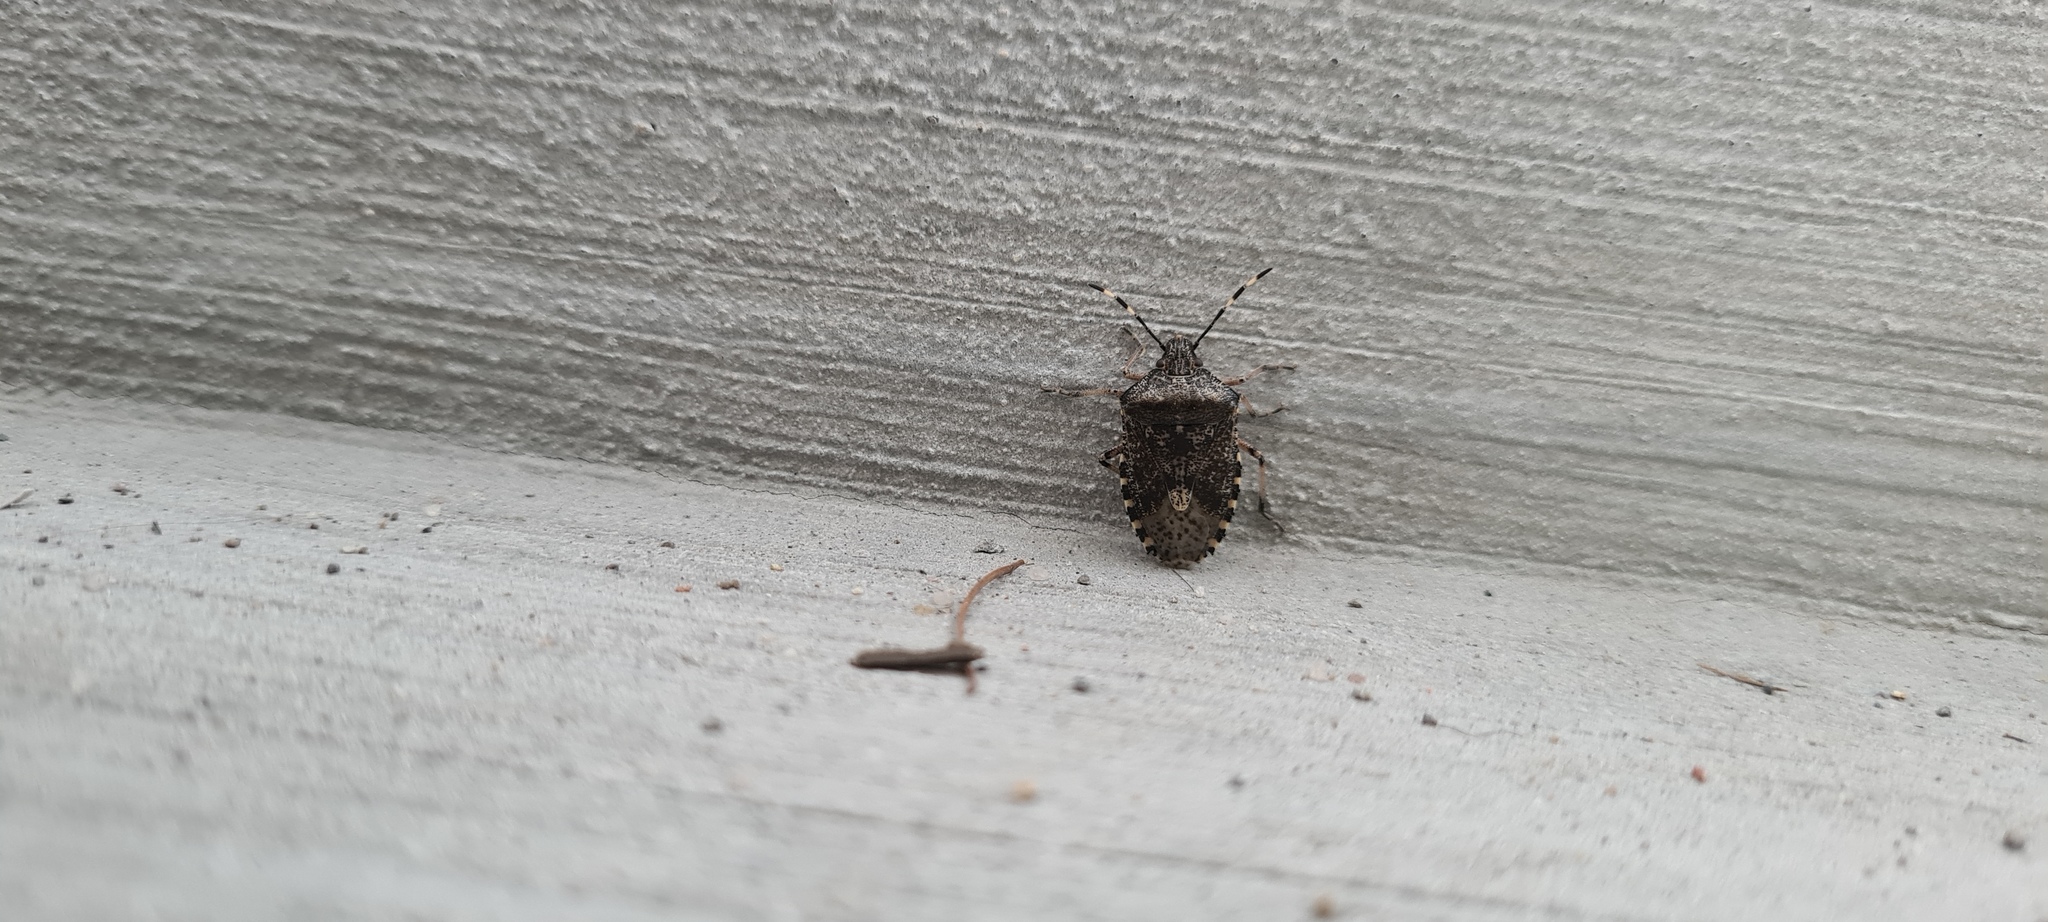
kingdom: Animalia
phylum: Arthropoda
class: Insecta
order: Hemiptera
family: Pentatomidae
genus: Rhaphigaster
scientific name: Rhaphigaster nebulosa
